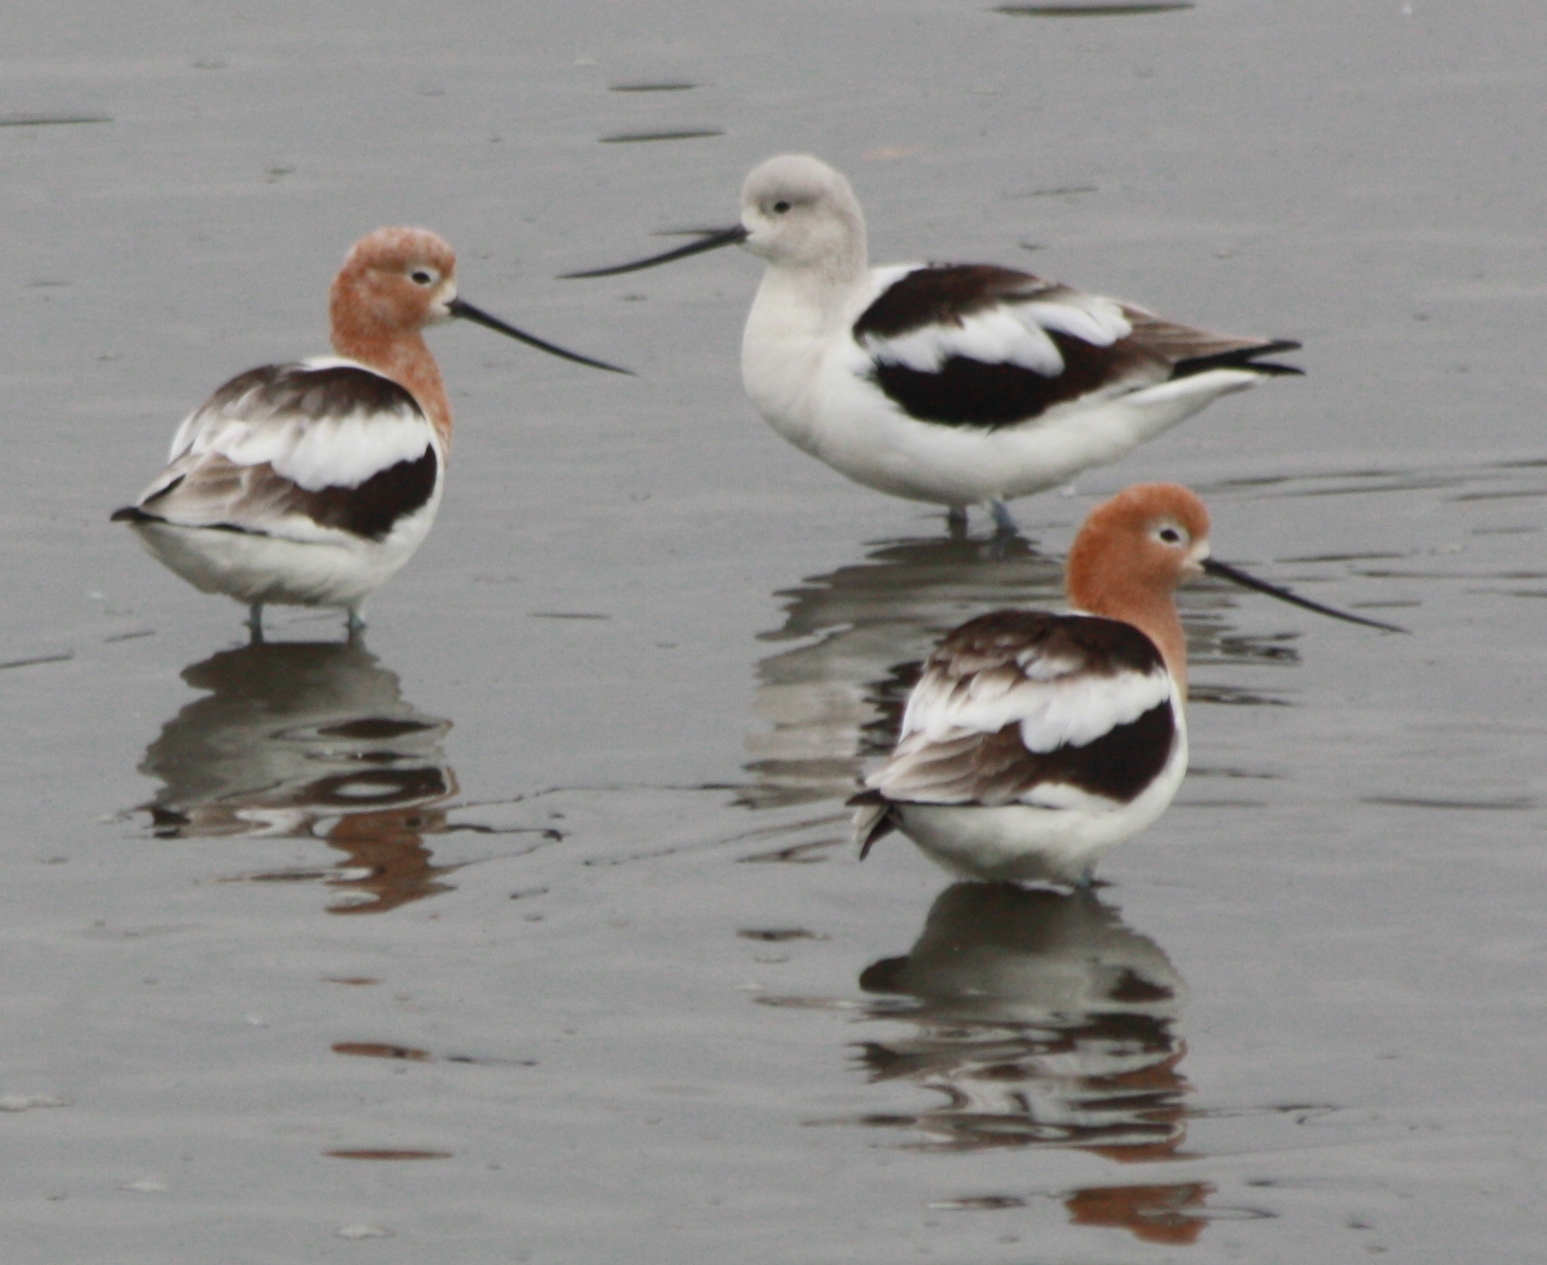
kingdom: Animalia
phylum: Chordata
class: Aves
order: Charadriiformes
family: Recurvirostridae
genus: Recurvirostra
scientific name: Recurvirostra americana
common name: American avocet
